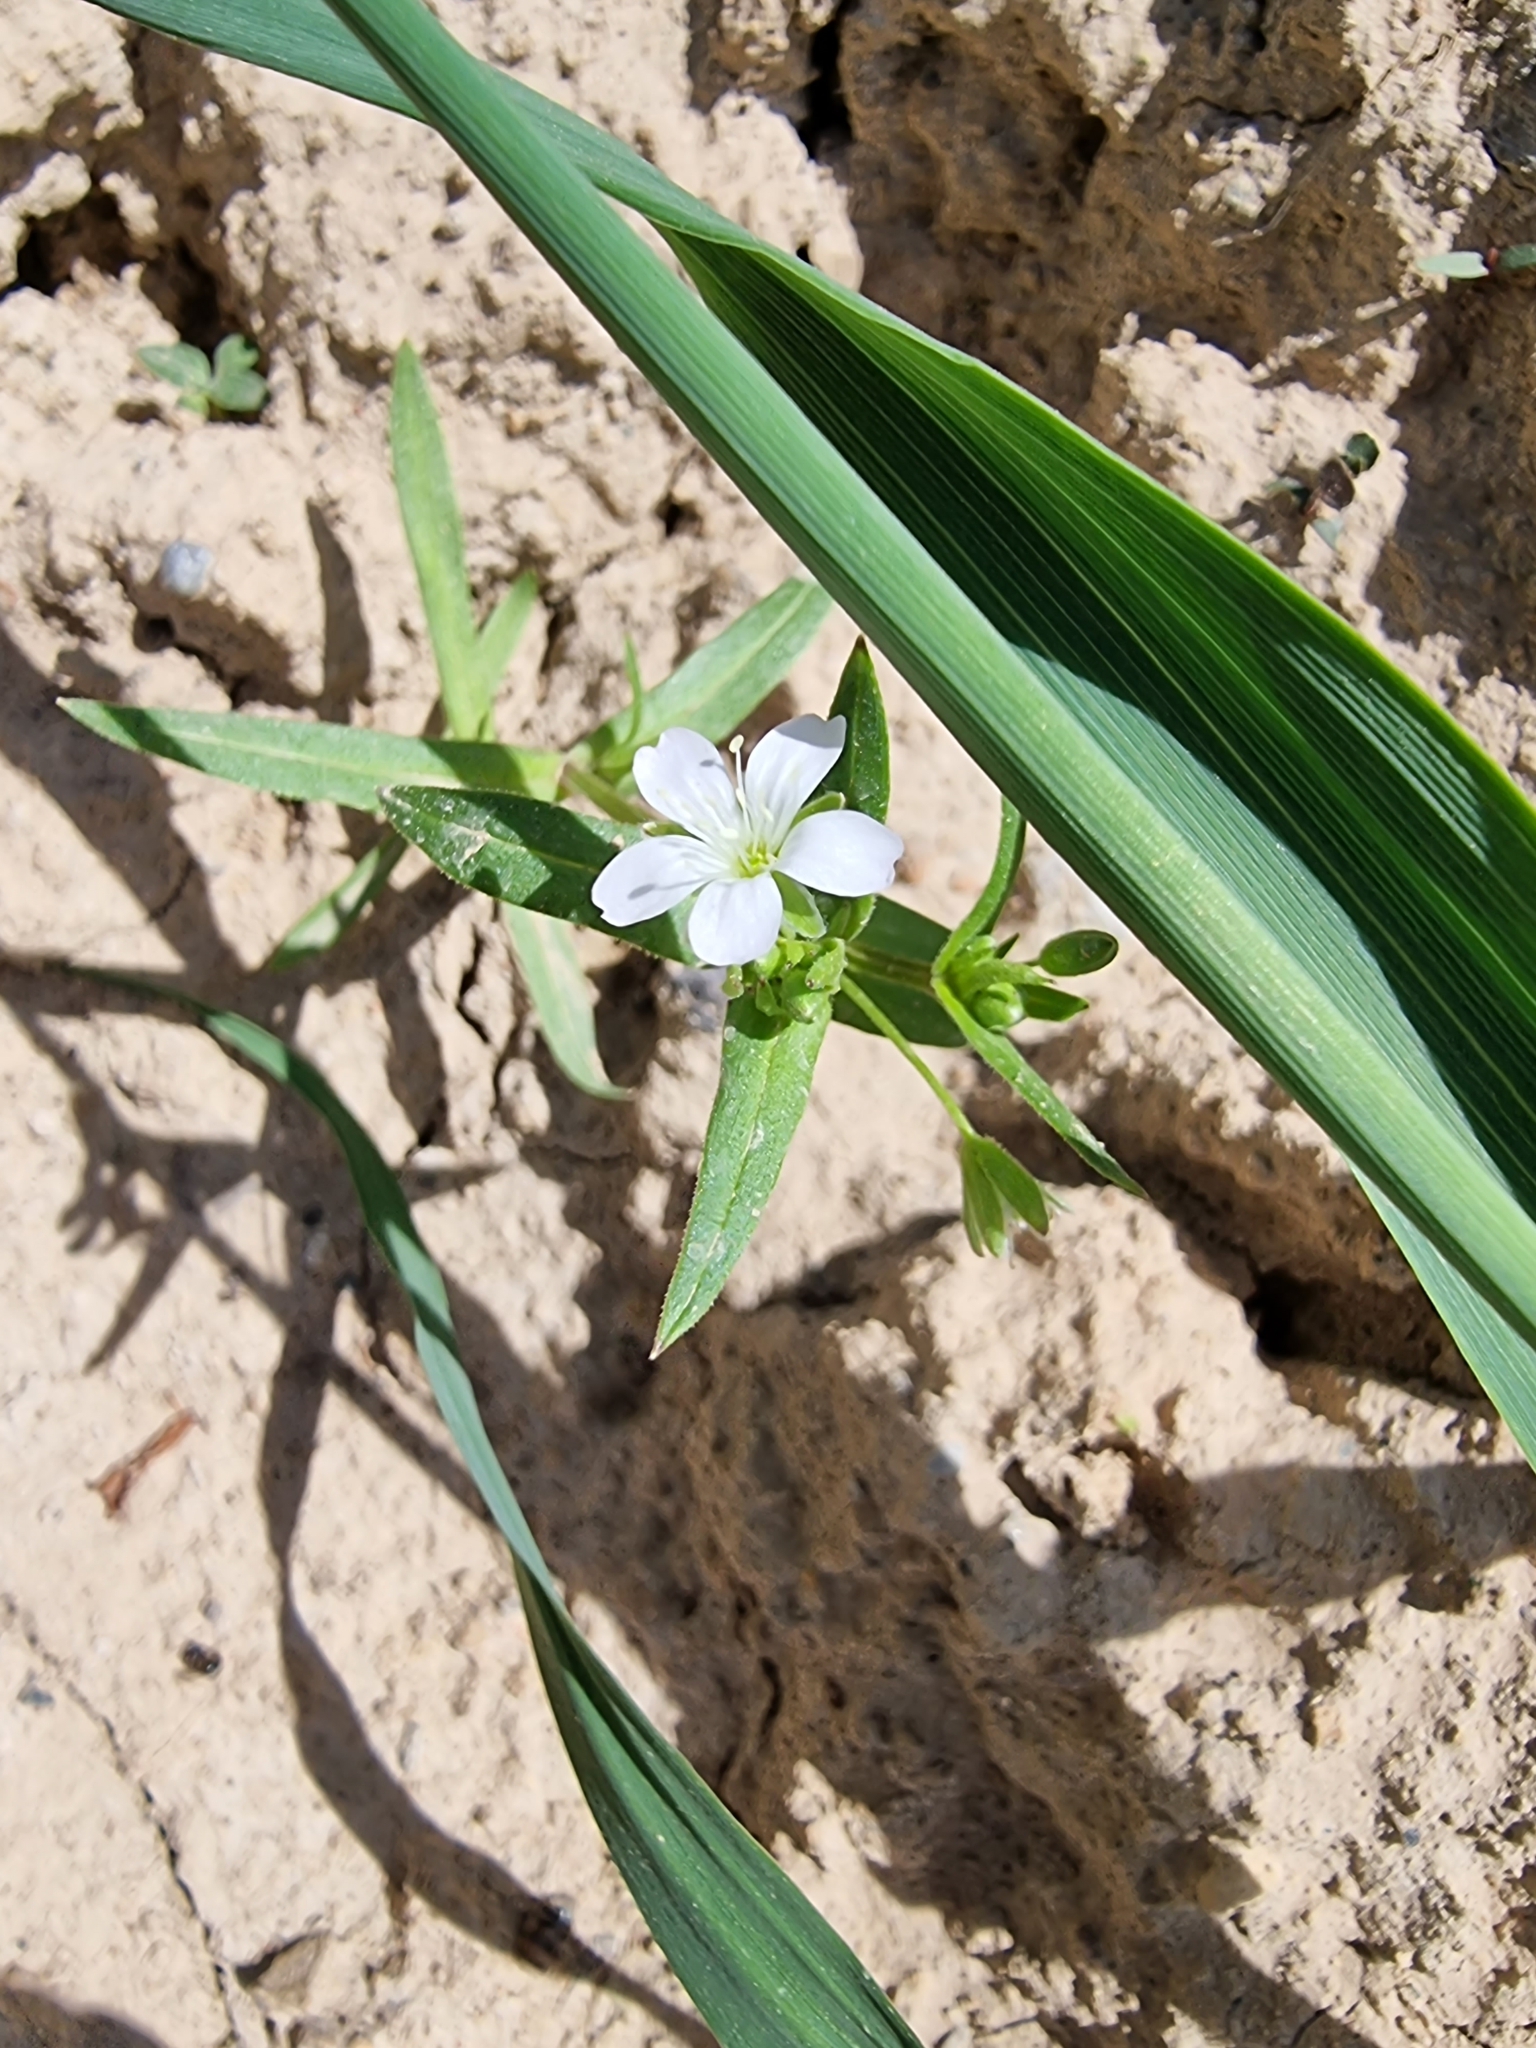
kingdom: Plantae
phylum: Tracheophyta
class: Magnoliopsida
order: Caryophyllales
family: Caryophyllaceae
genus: Lepyrodiclis
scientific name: Lepyrodiclis holosteoides
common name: False jagged-ckickweed
